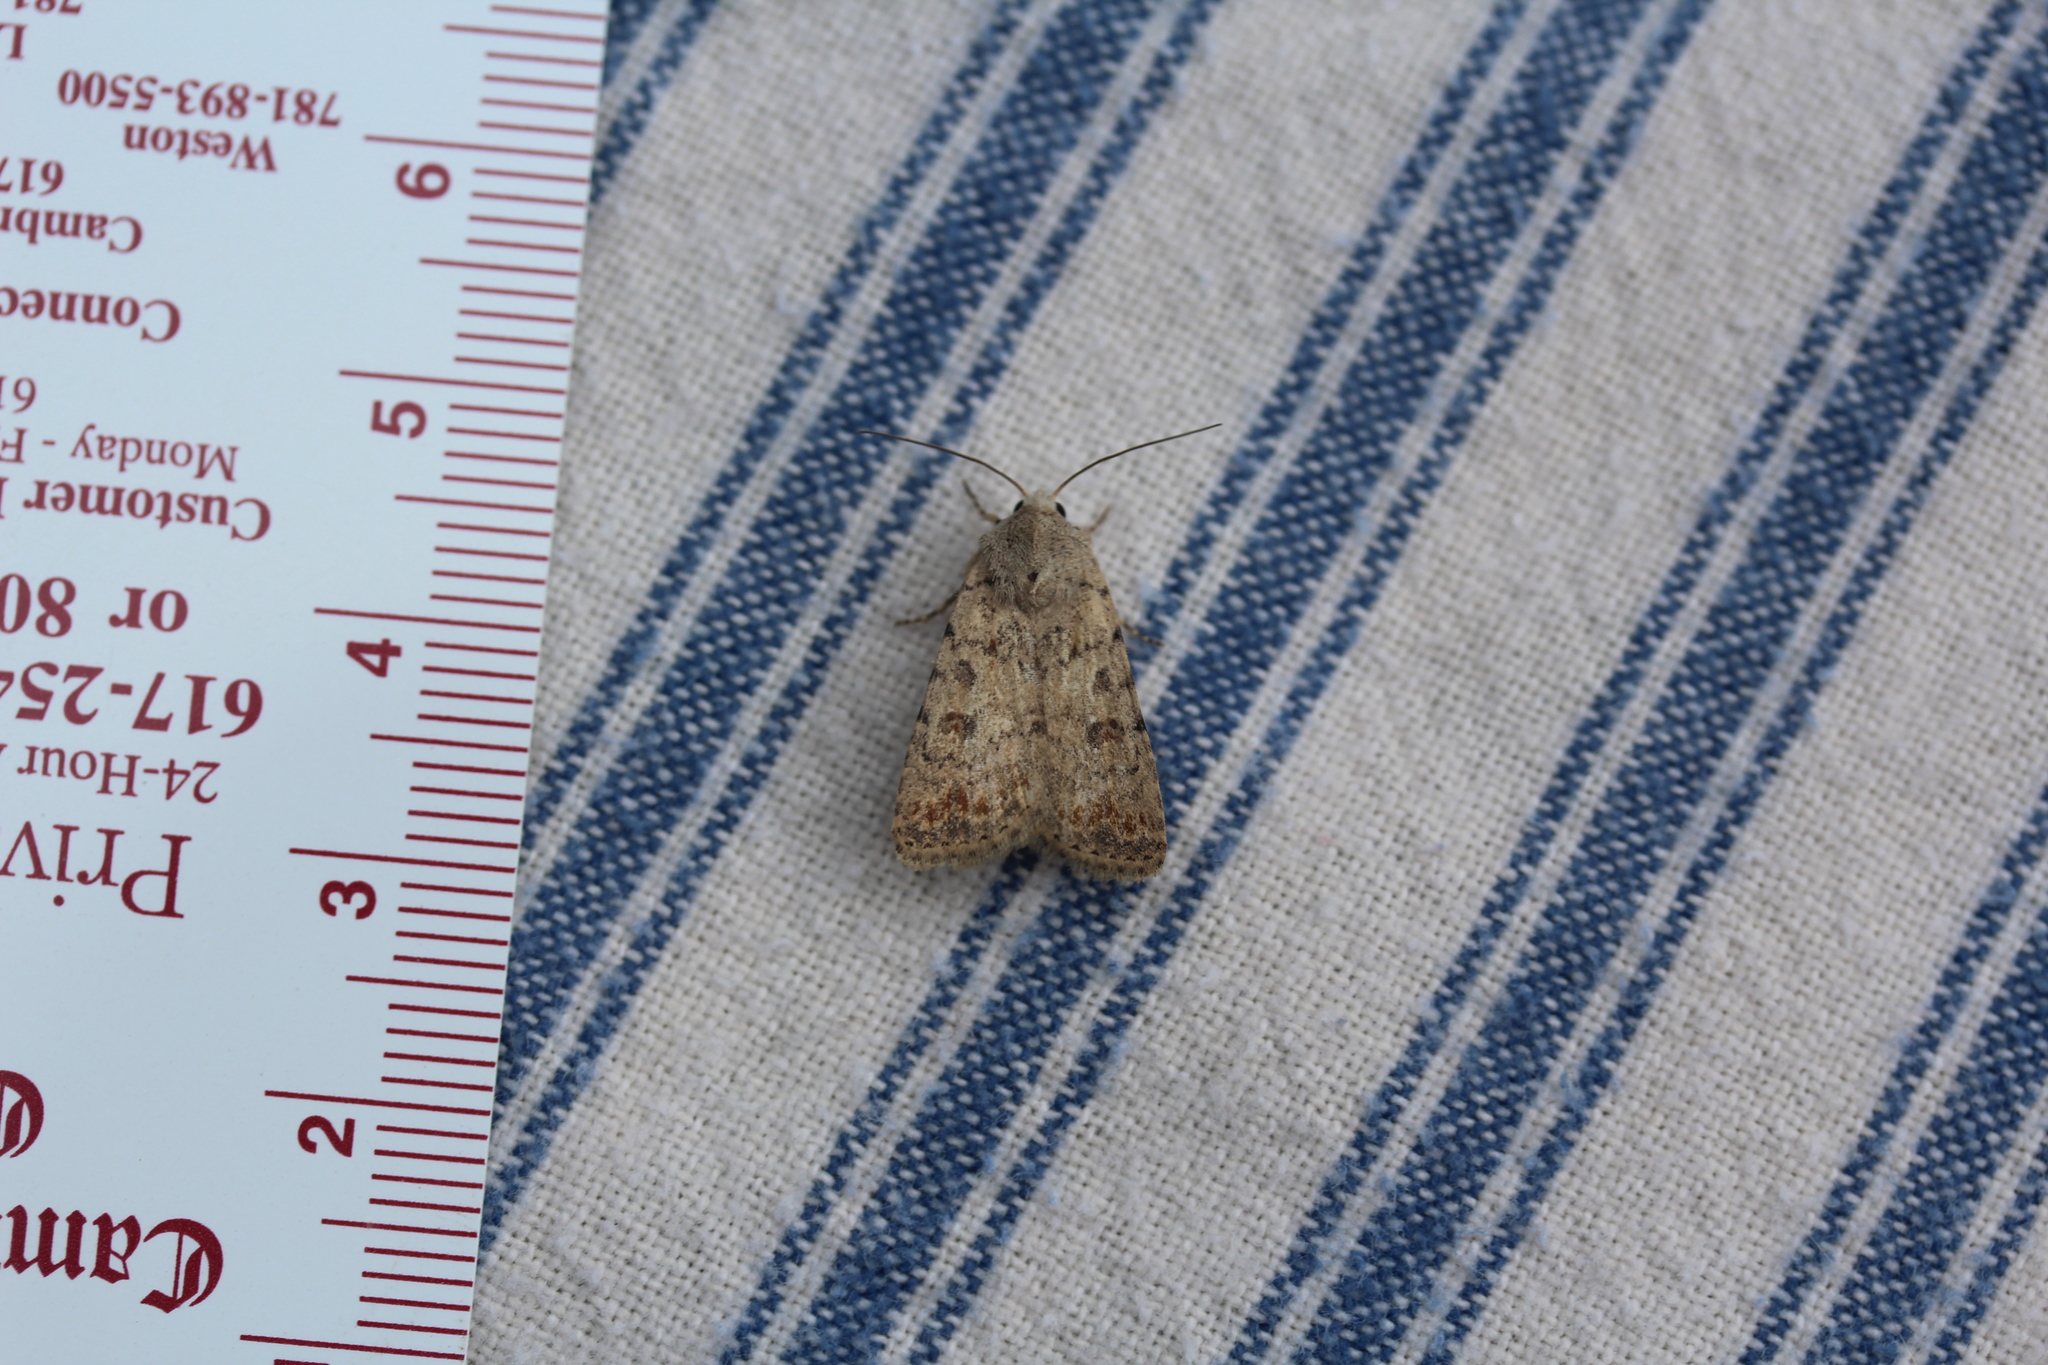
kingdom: Animalia
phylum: Arthropoda
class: Insecta
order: Lepidoptera
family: Noctuidae
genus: Caradrina
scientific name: Caradrina clavipalpis
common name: Pale mottled willow
